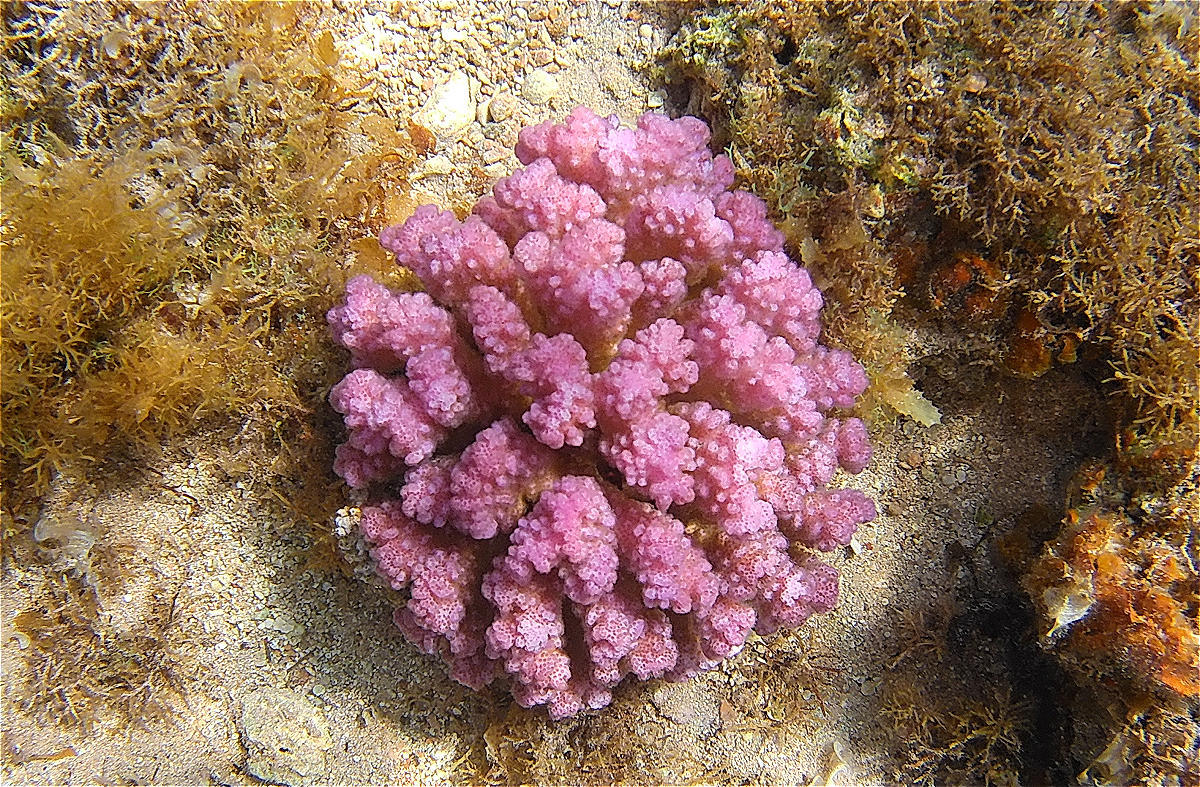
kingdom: Animalia
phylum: Cnidaria
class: Anthozoa
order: Scleractinia
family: Pocilloporidae
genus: Pocillopora
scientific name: Pocillopora verrucosa
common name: Cauliflower coral
